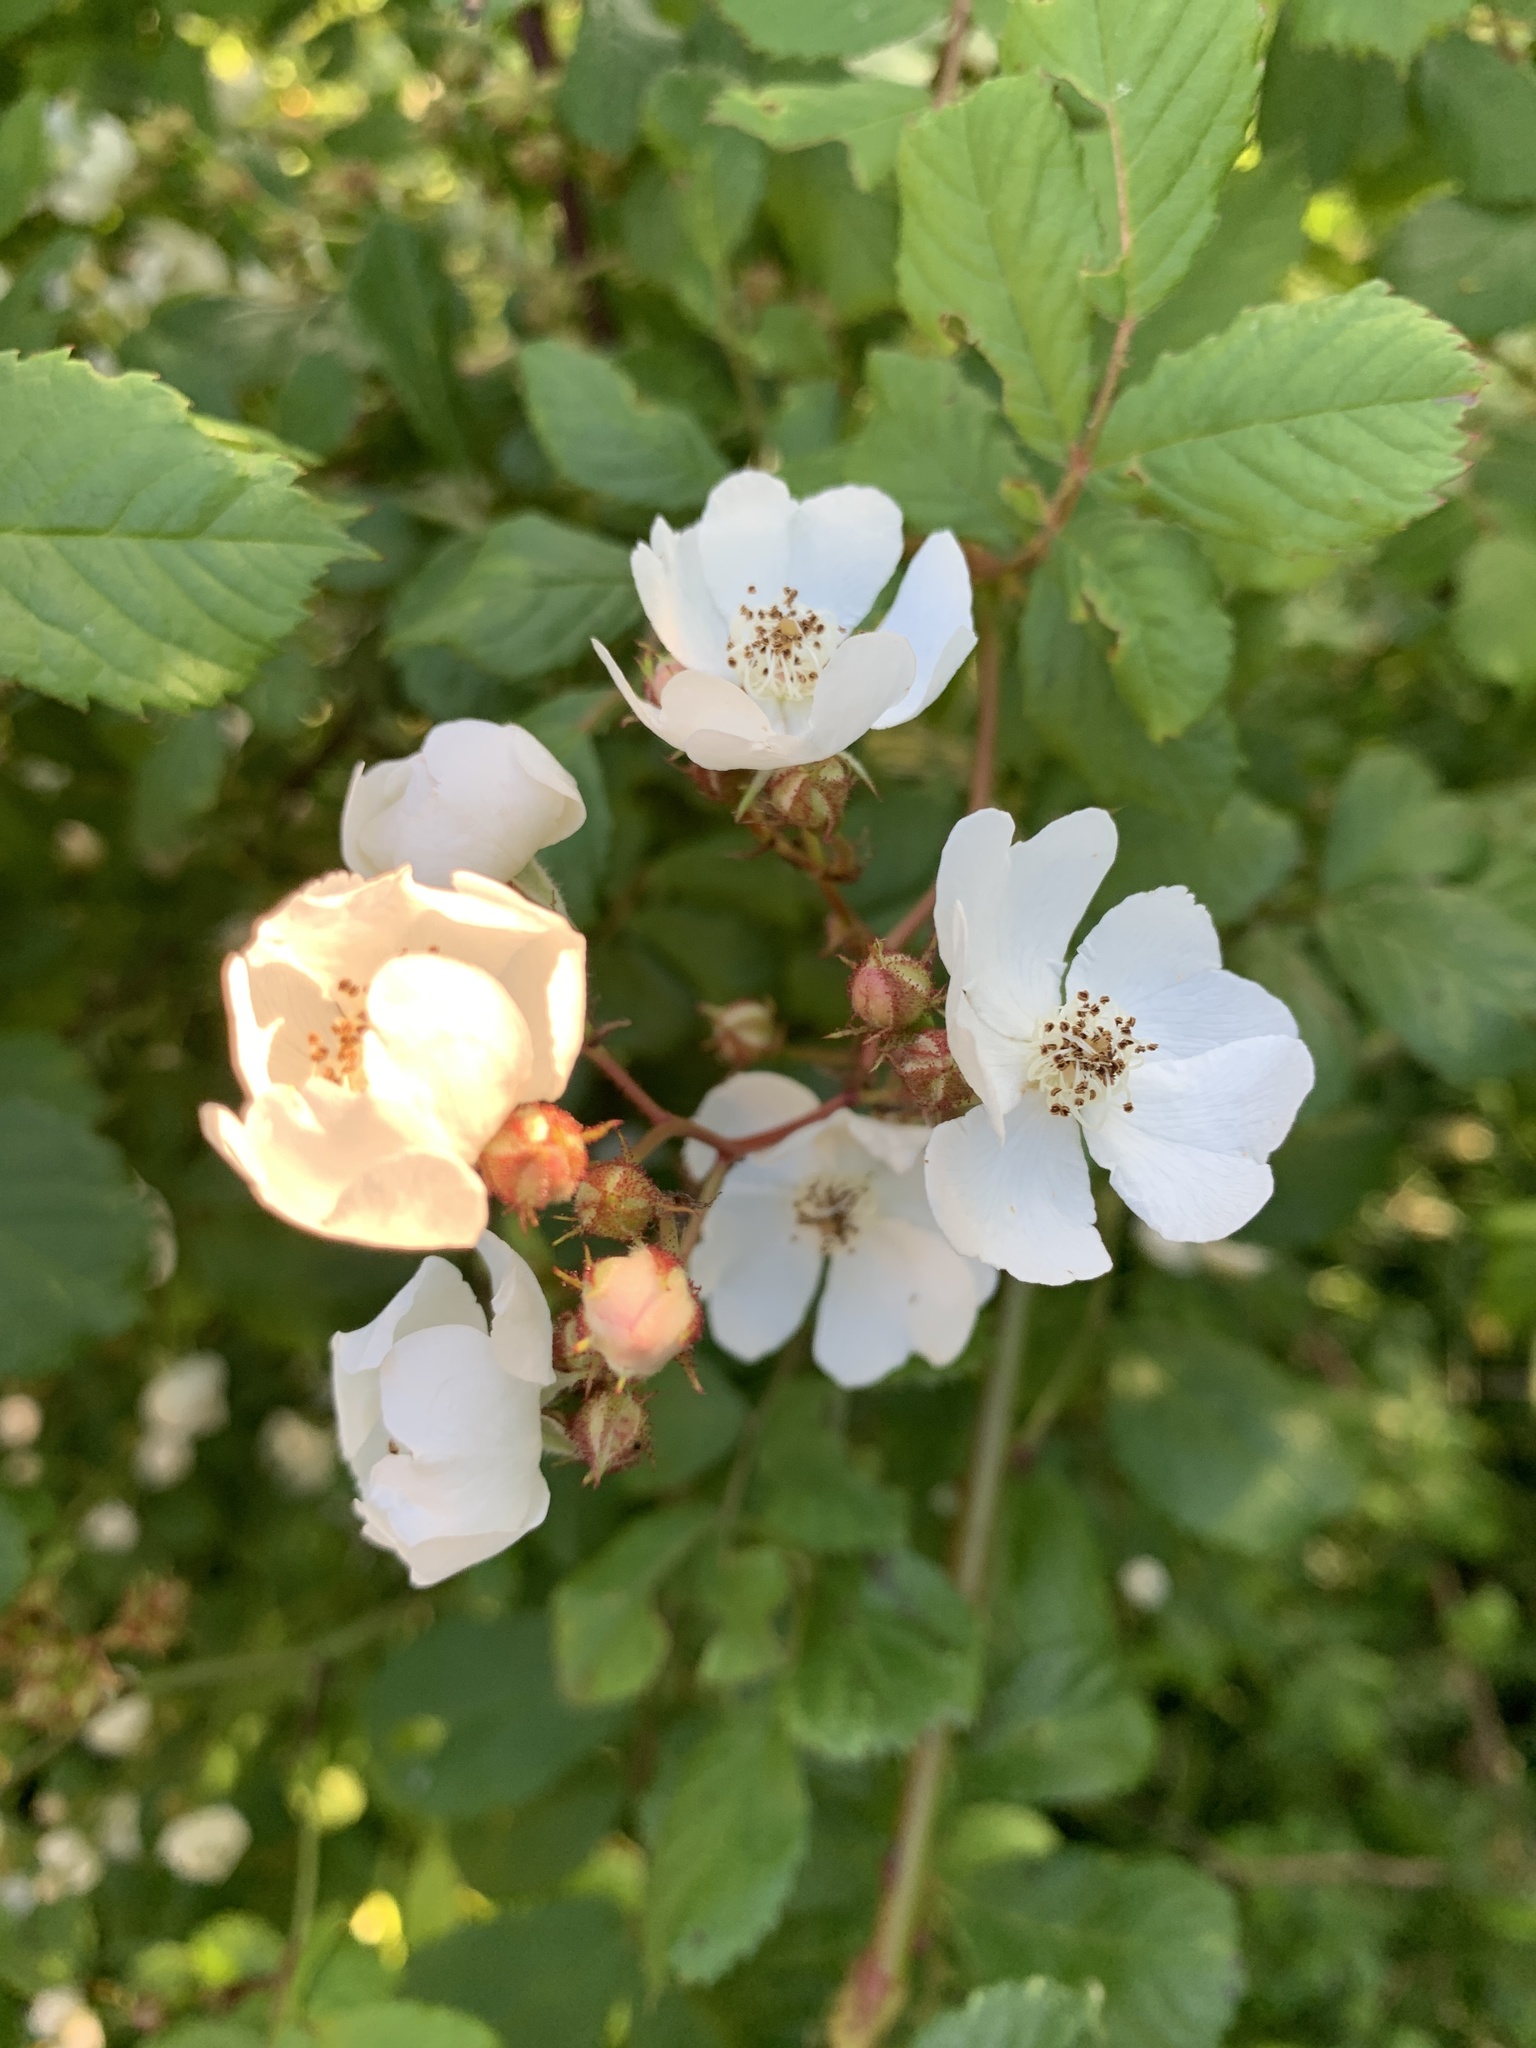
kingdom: Plantae
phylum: Tracheophyta
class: Magnoliopsida
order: Rosales
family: Rosaceae
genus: Rosa
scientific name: Rosa multiflora
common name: Multiflora rose
